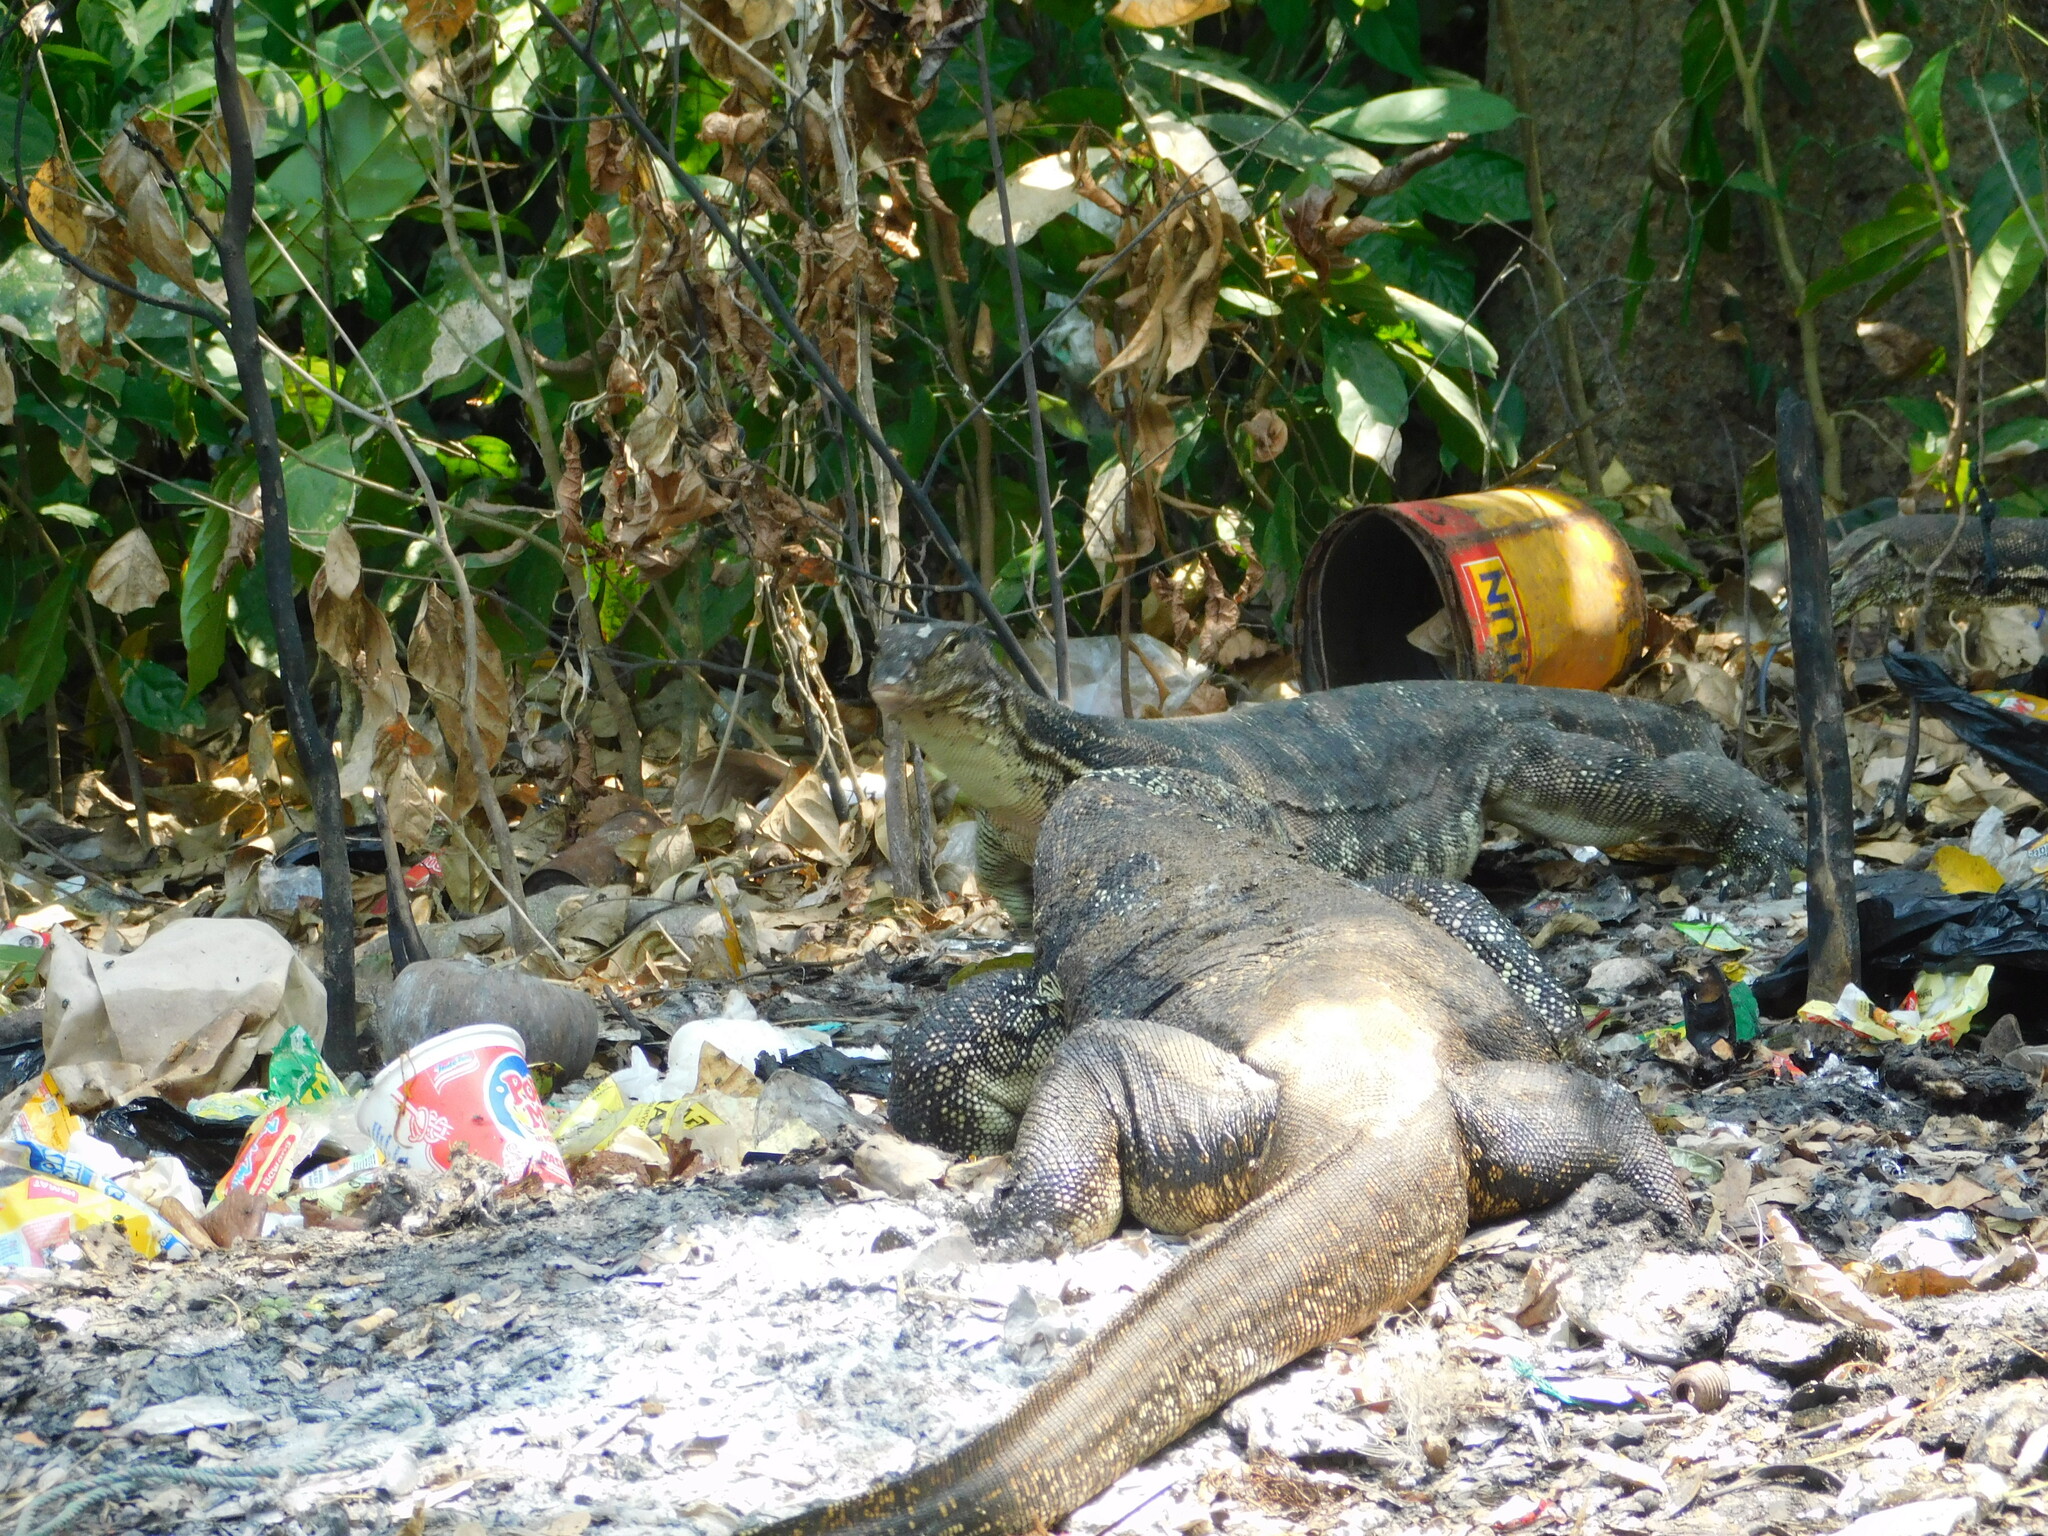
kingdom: Animalia
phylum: Chordata
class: Squamata
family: Varanidae
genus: Varanus
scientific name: Varanus salvator
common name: Common water monitor
